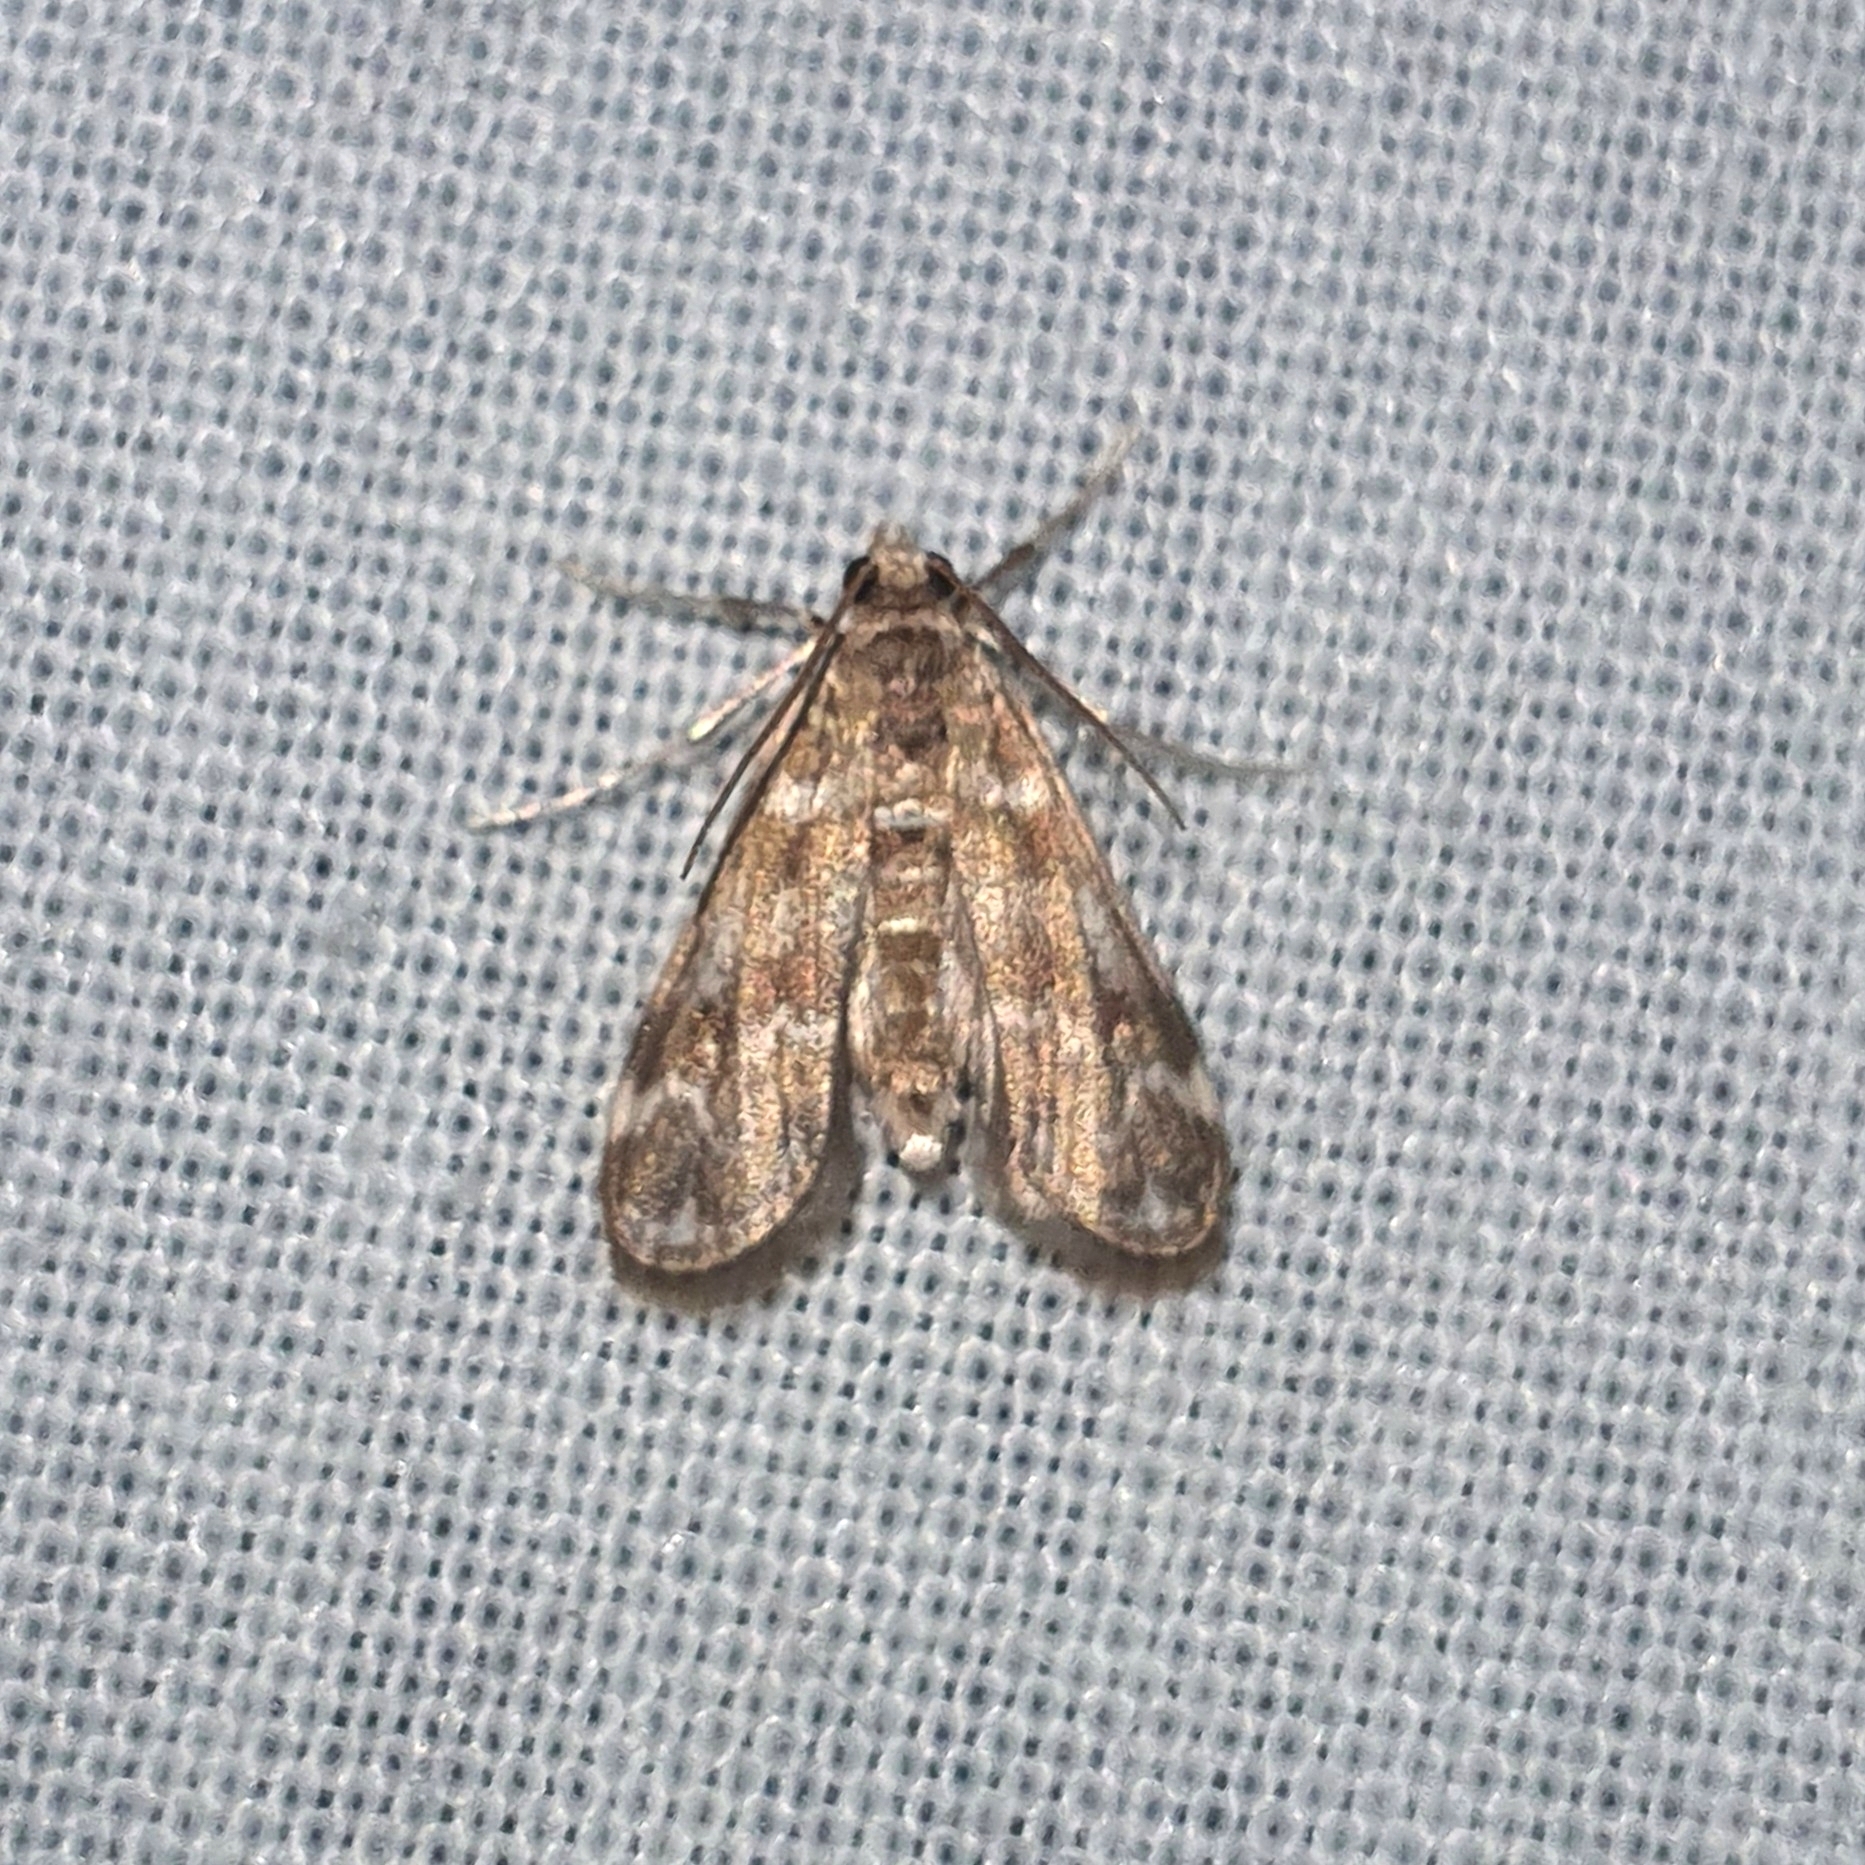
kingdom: Animalia
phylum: Arthropoda
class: Insecta
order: Lepidoptera
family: Crambidae
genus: Hygraula
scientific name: Hygraula nitens
